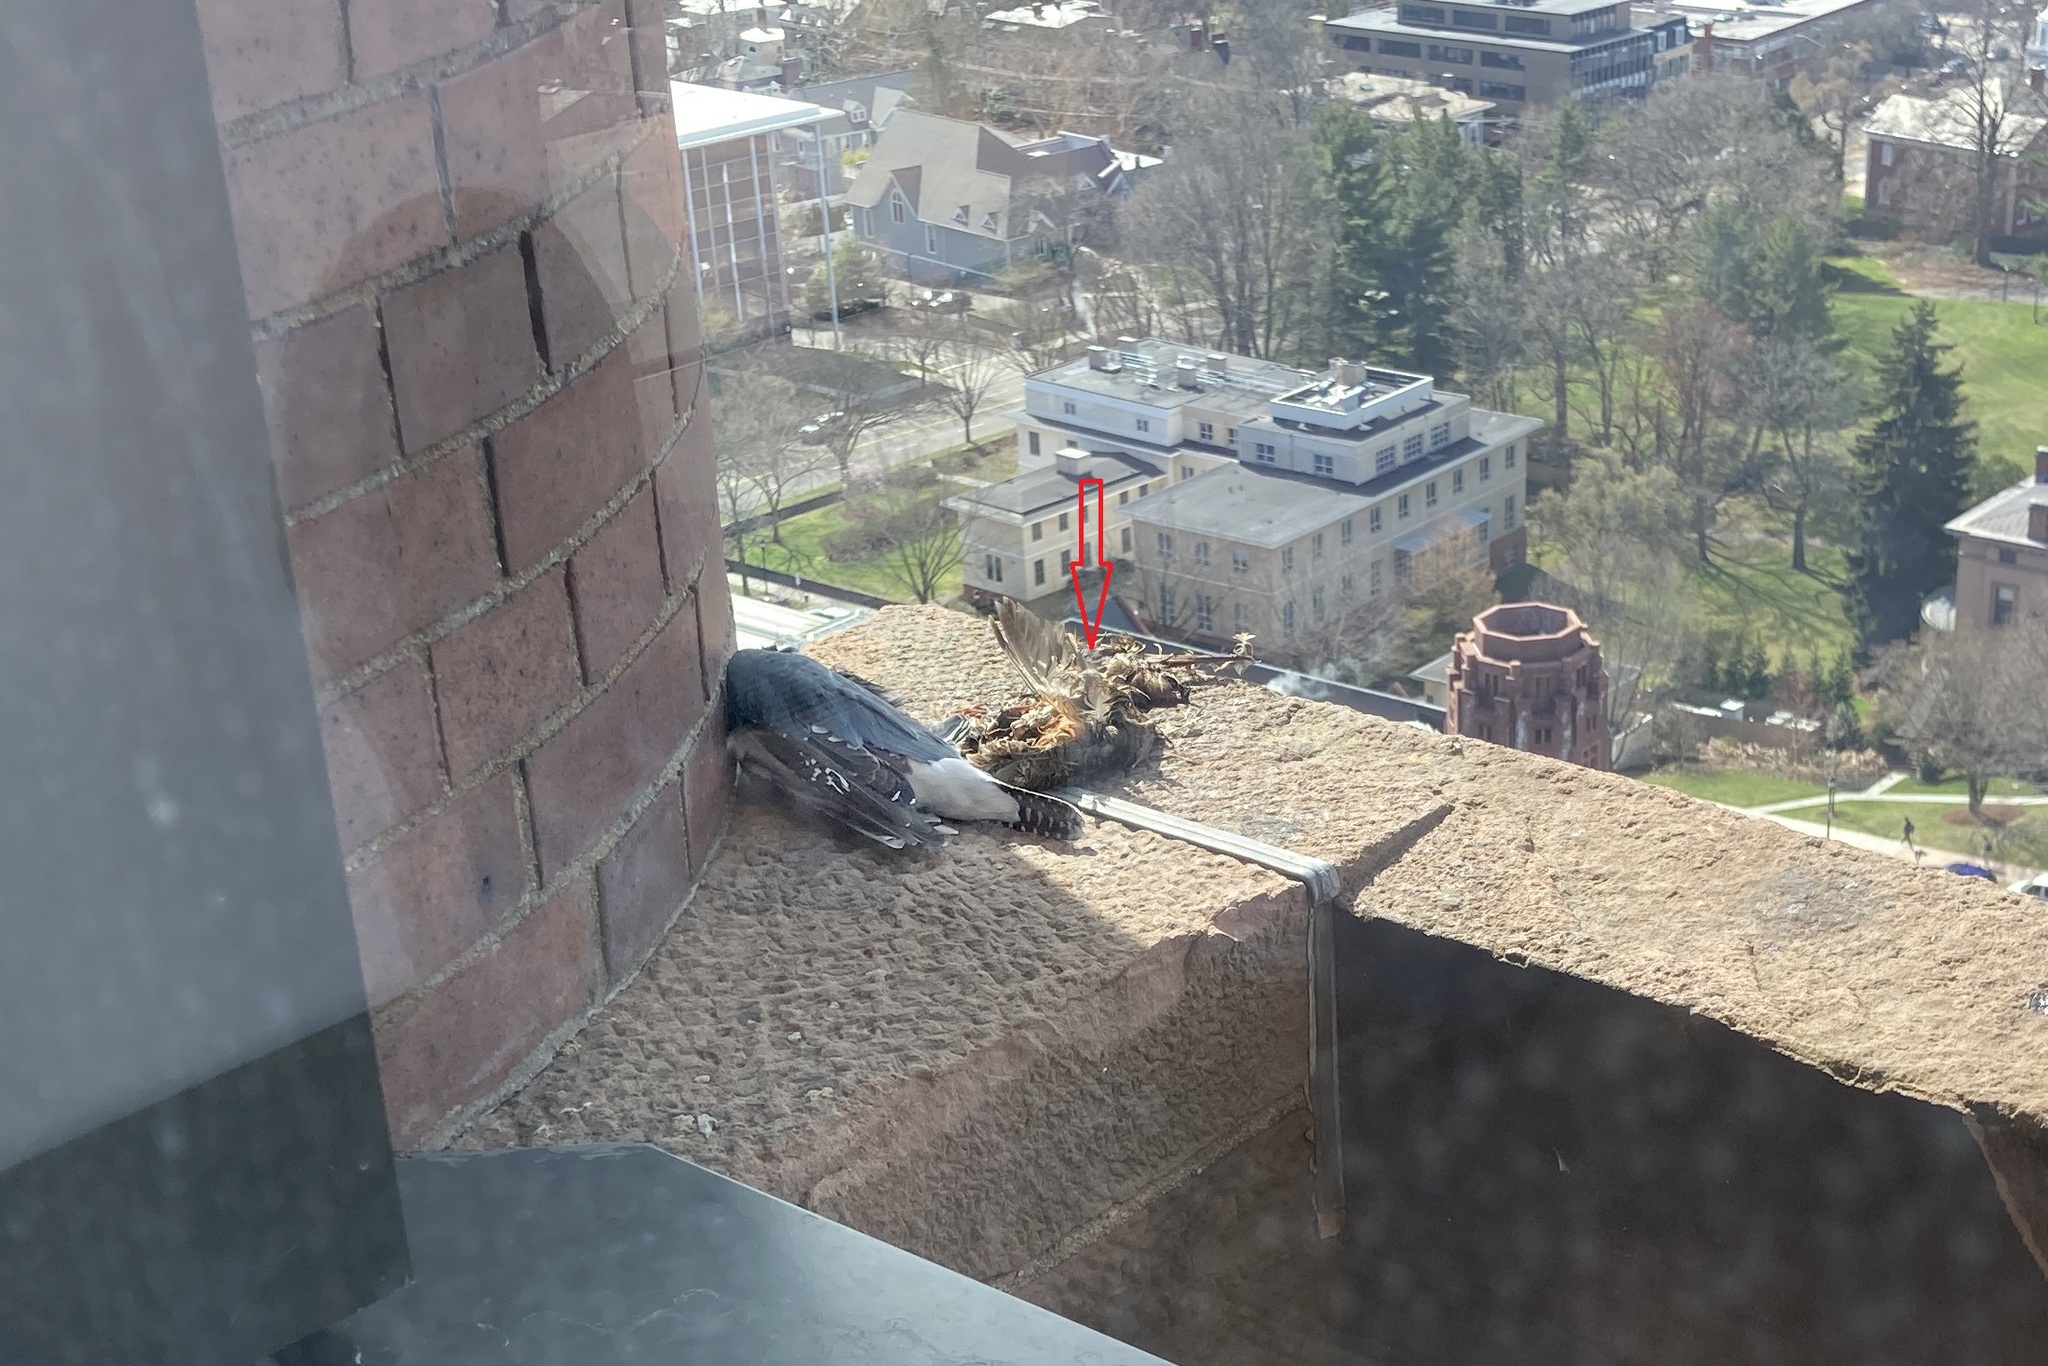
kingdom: Animalia
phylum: Chordata
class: Aves
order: Charadriiformes
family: Scolopacidae
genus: Scolopax
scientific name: Scolopax minor
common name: American woodcock
